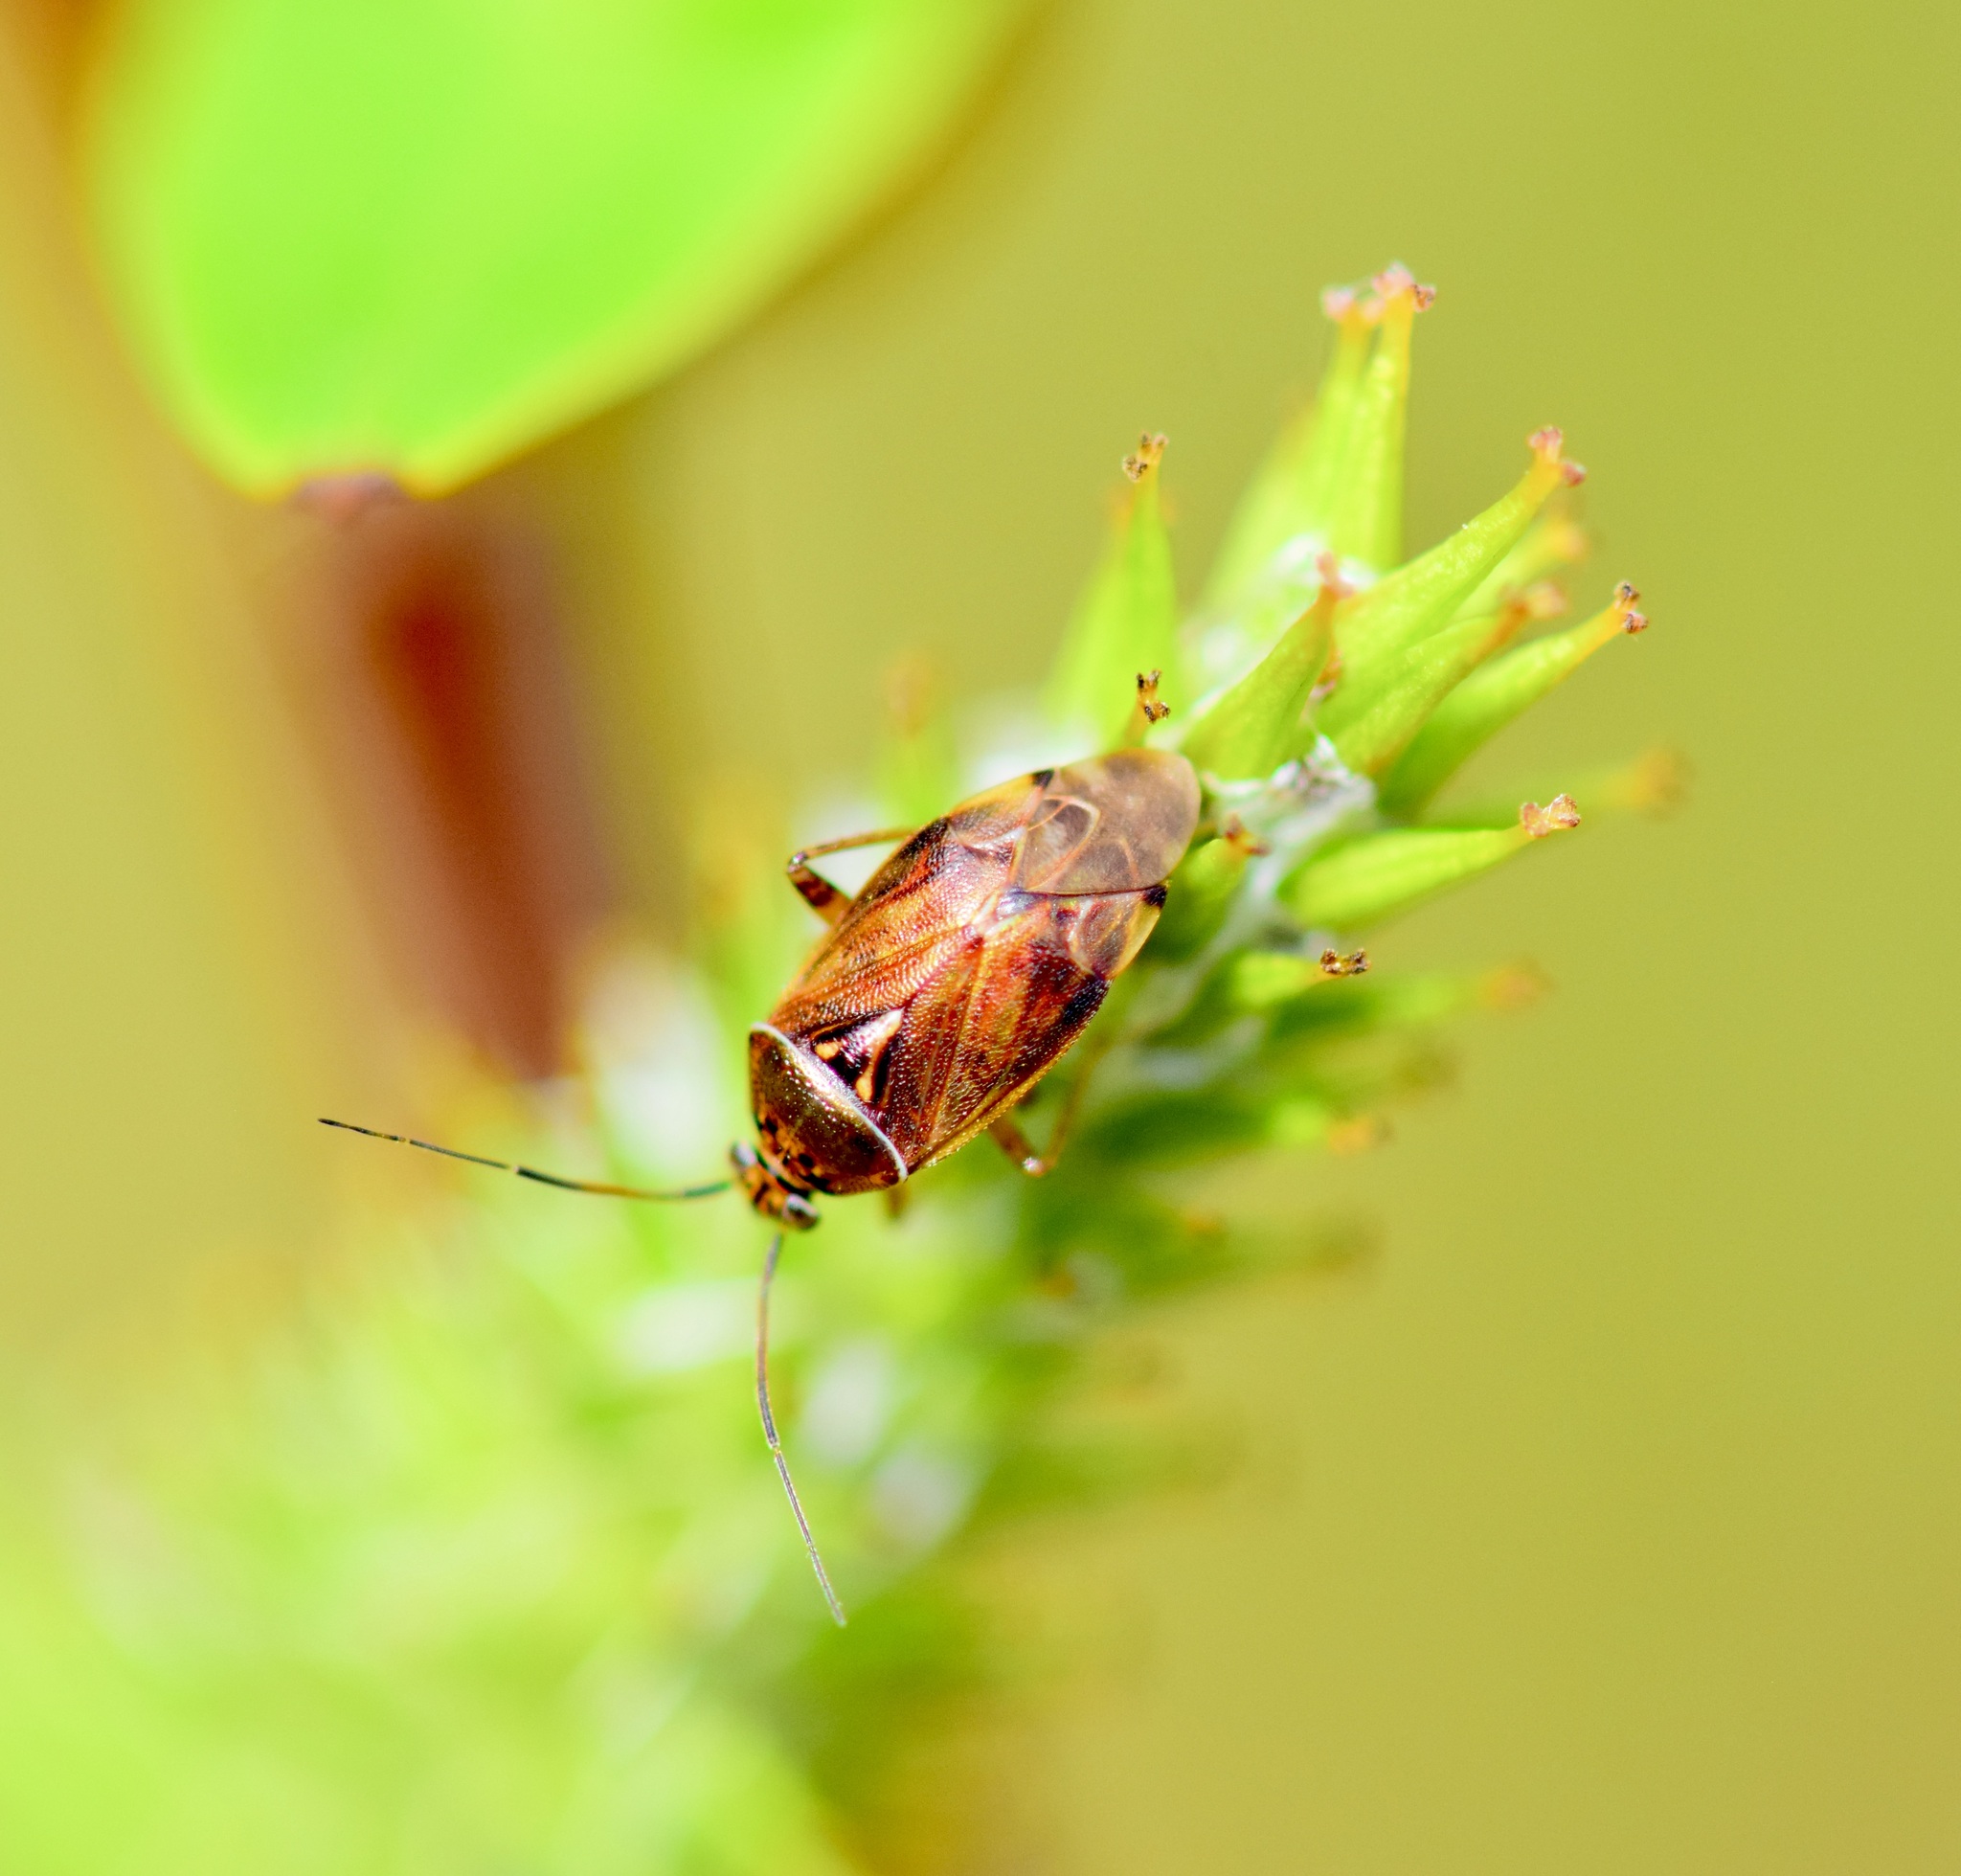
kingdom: Animalia
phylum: Arthropoda
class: Insecta
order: Hemiptera
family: Miridae
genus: Lygus
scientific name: Lygus lineolaris
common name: North american tarnished plant bug
